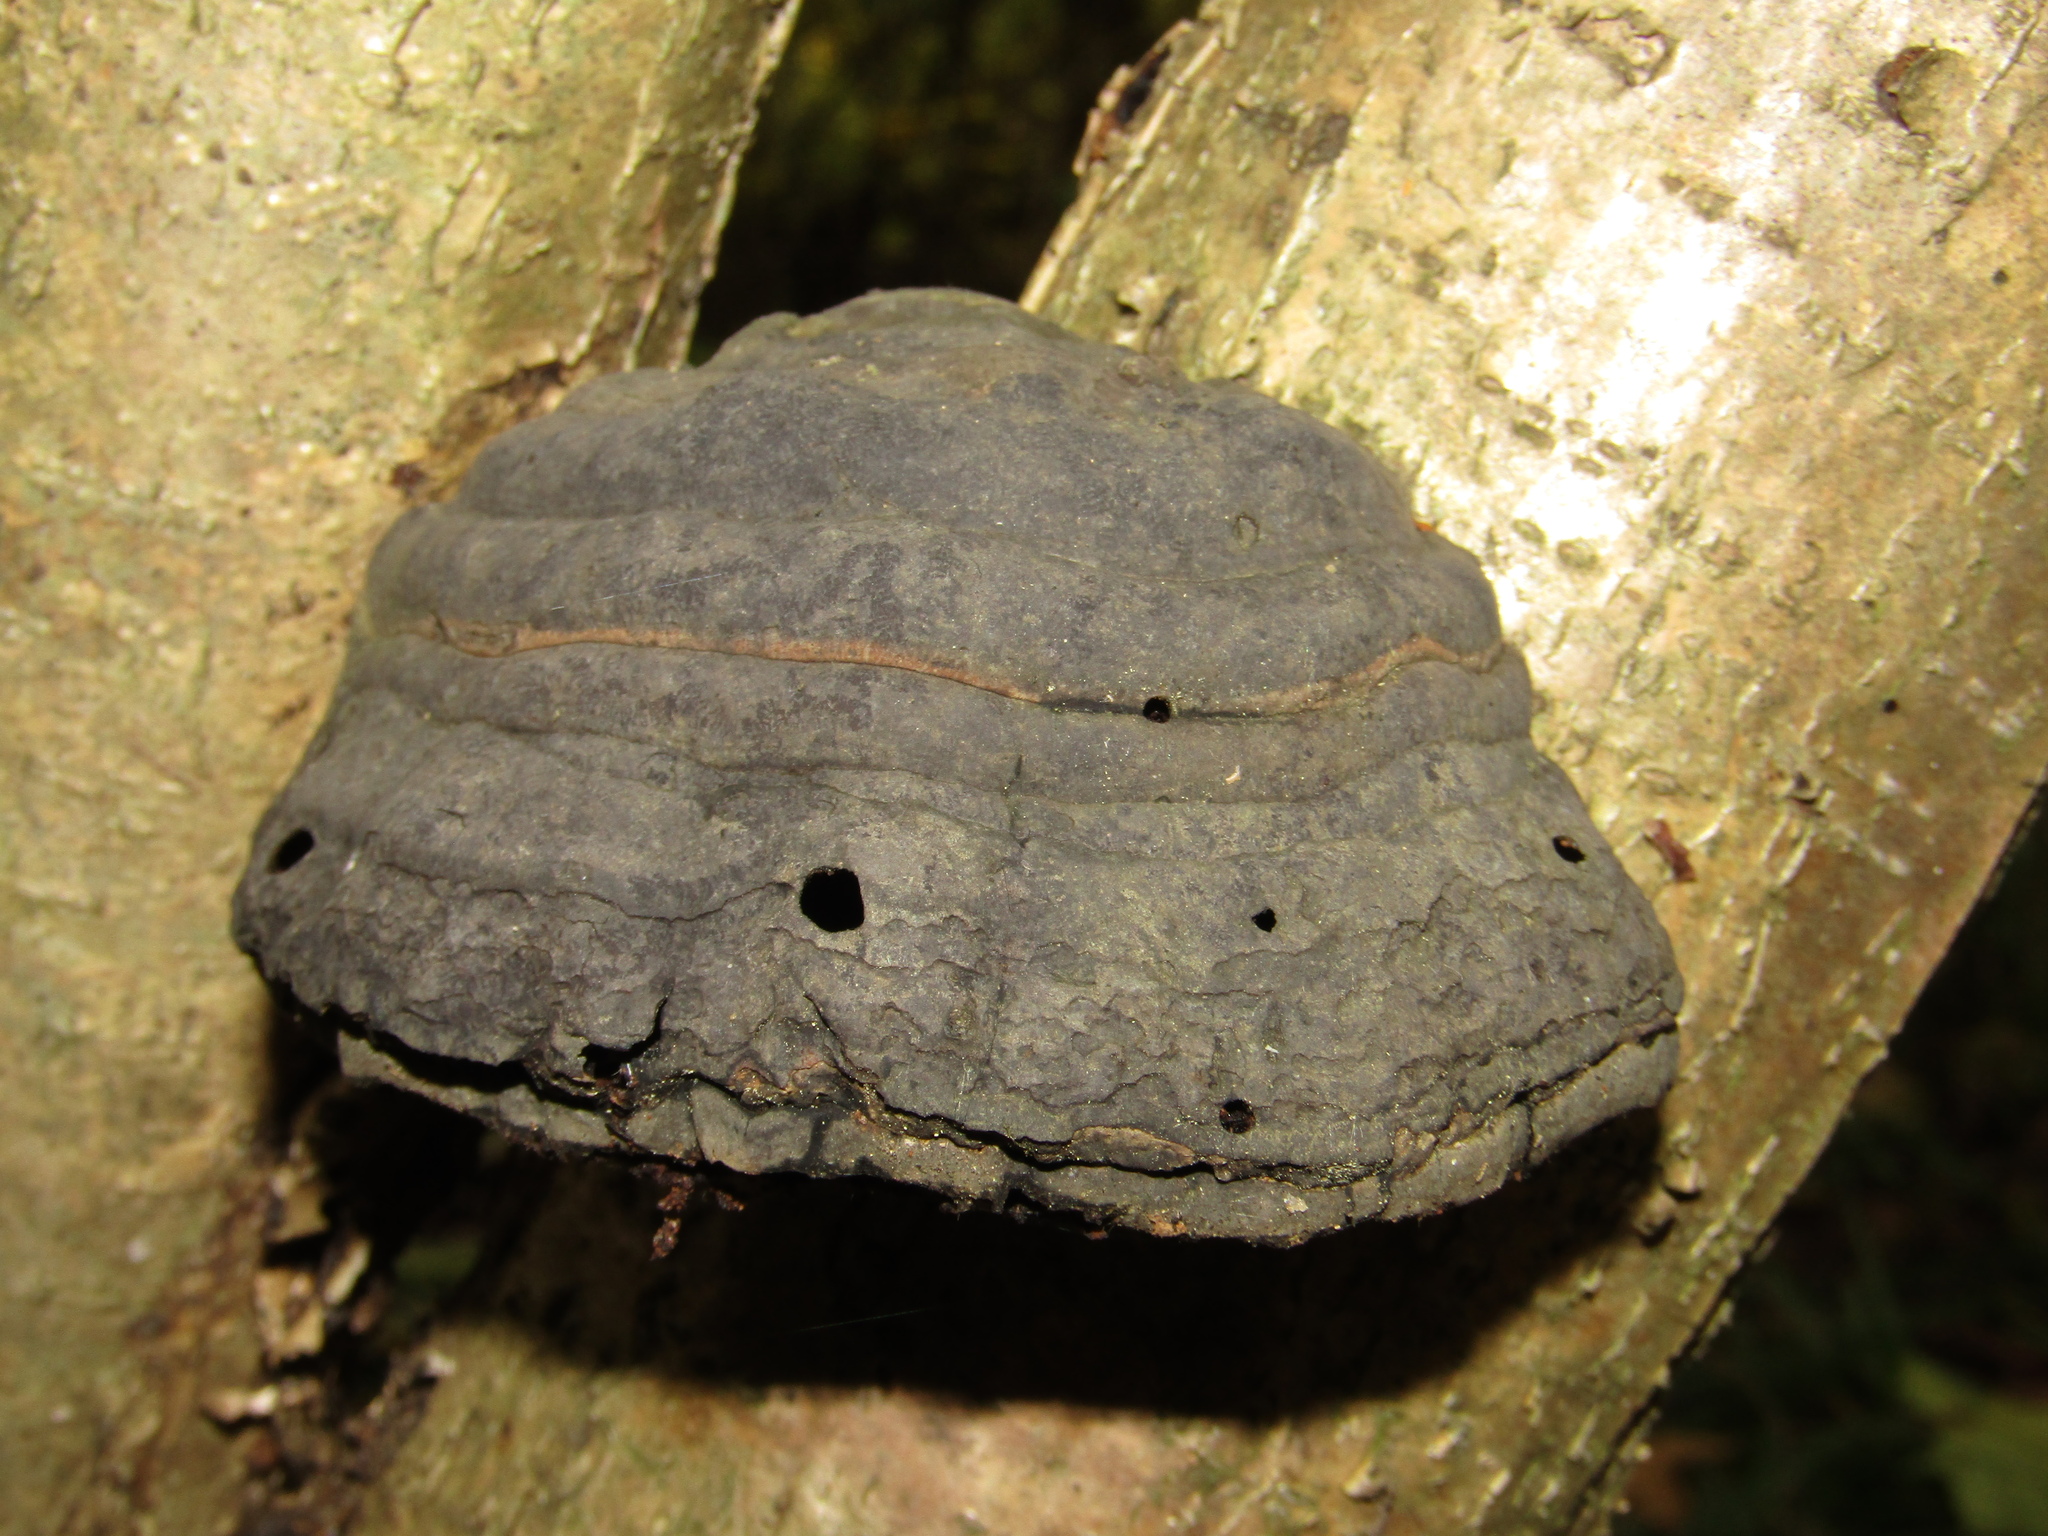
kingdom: Fungi
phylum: Basidiomycota
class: Agaricomycetes
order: Polyporales
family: Polyporaceae
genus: Fomes
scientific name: Fomes fomentarius
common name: Hoof fungus
